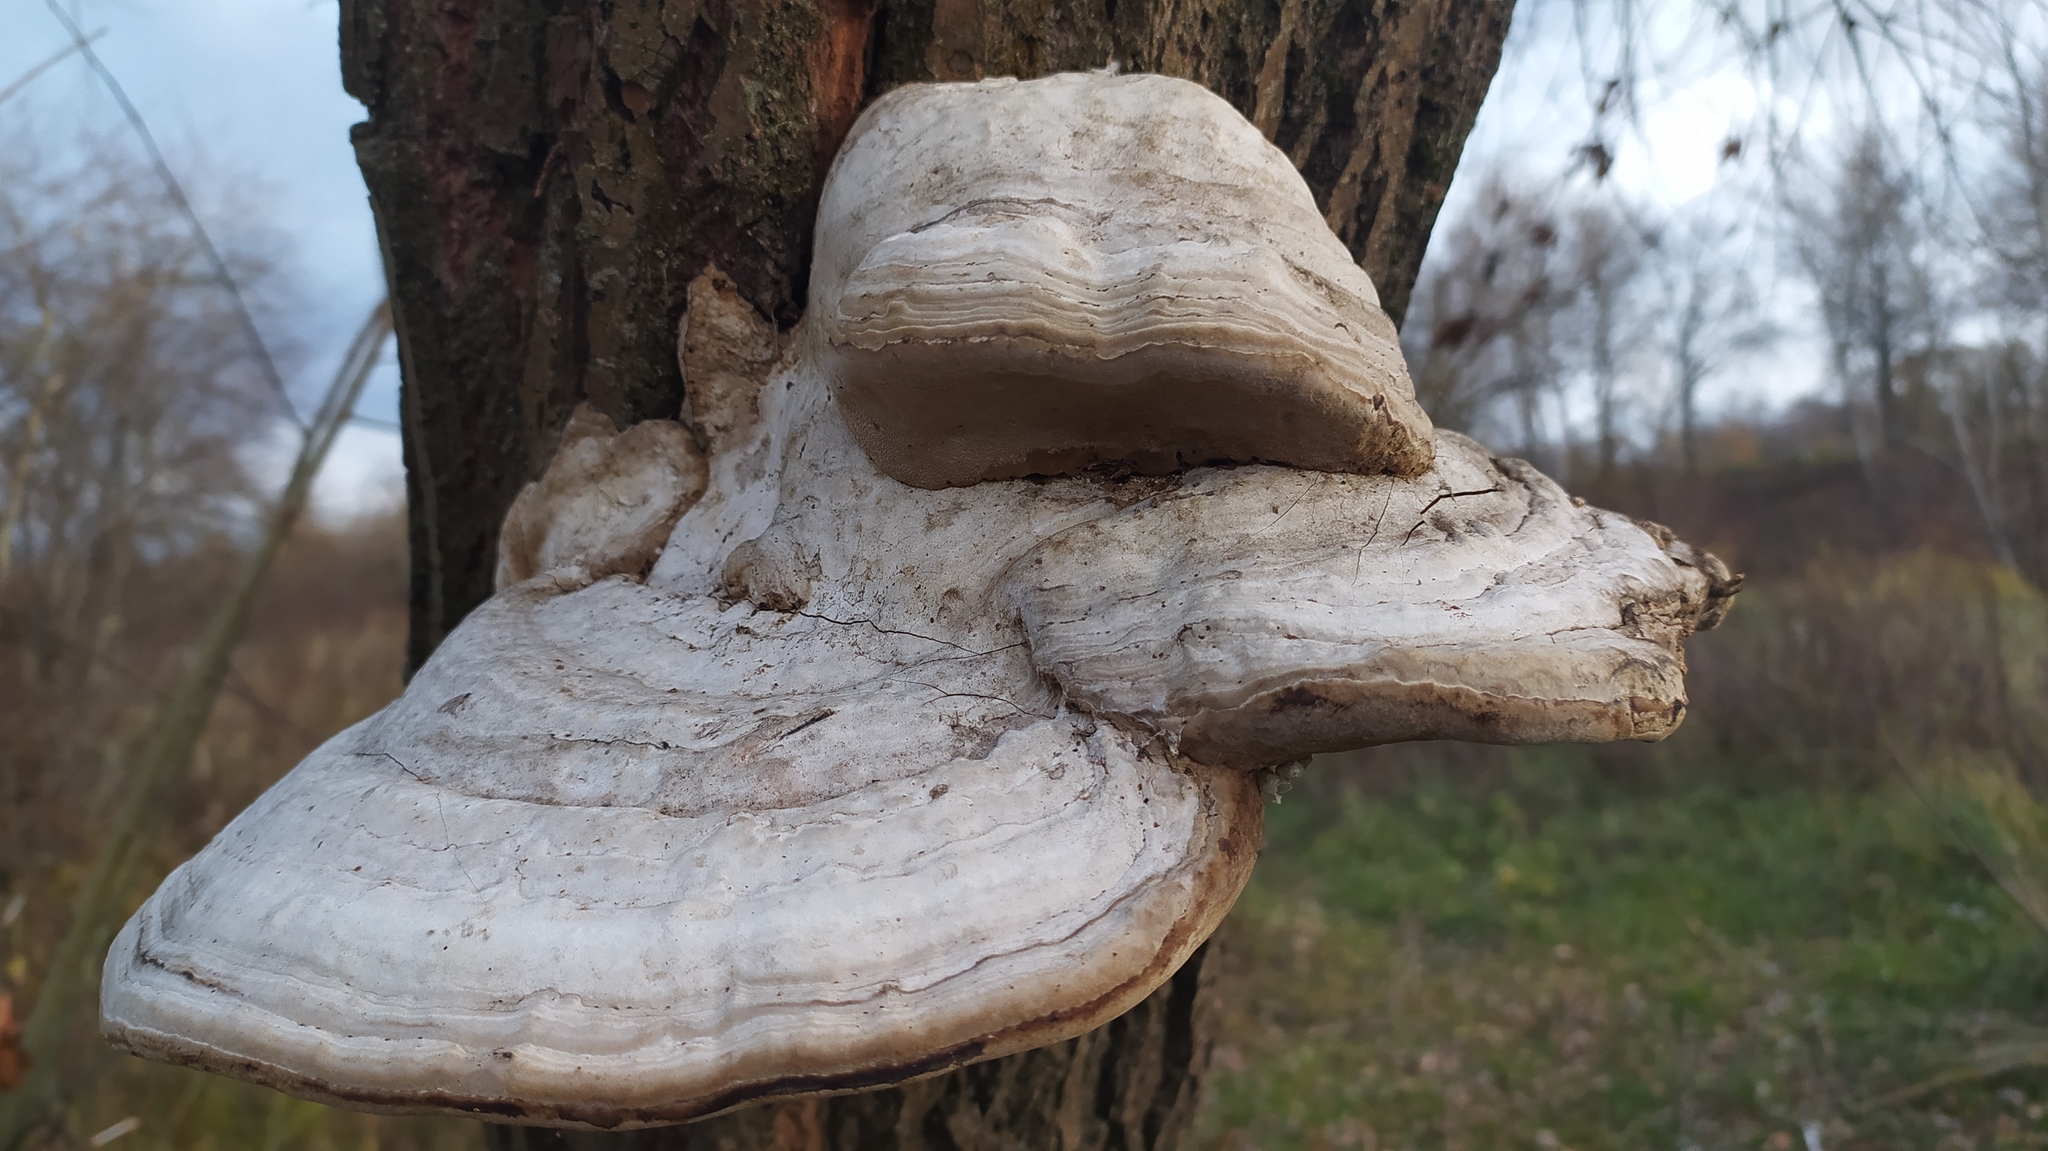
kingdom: Fungi
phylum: Basidiomycota
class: Agaricomycetes
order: Polyporales
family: Polyporaceae
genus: Fomes
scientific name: Fomes fomentarius
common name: Hoof fungus
